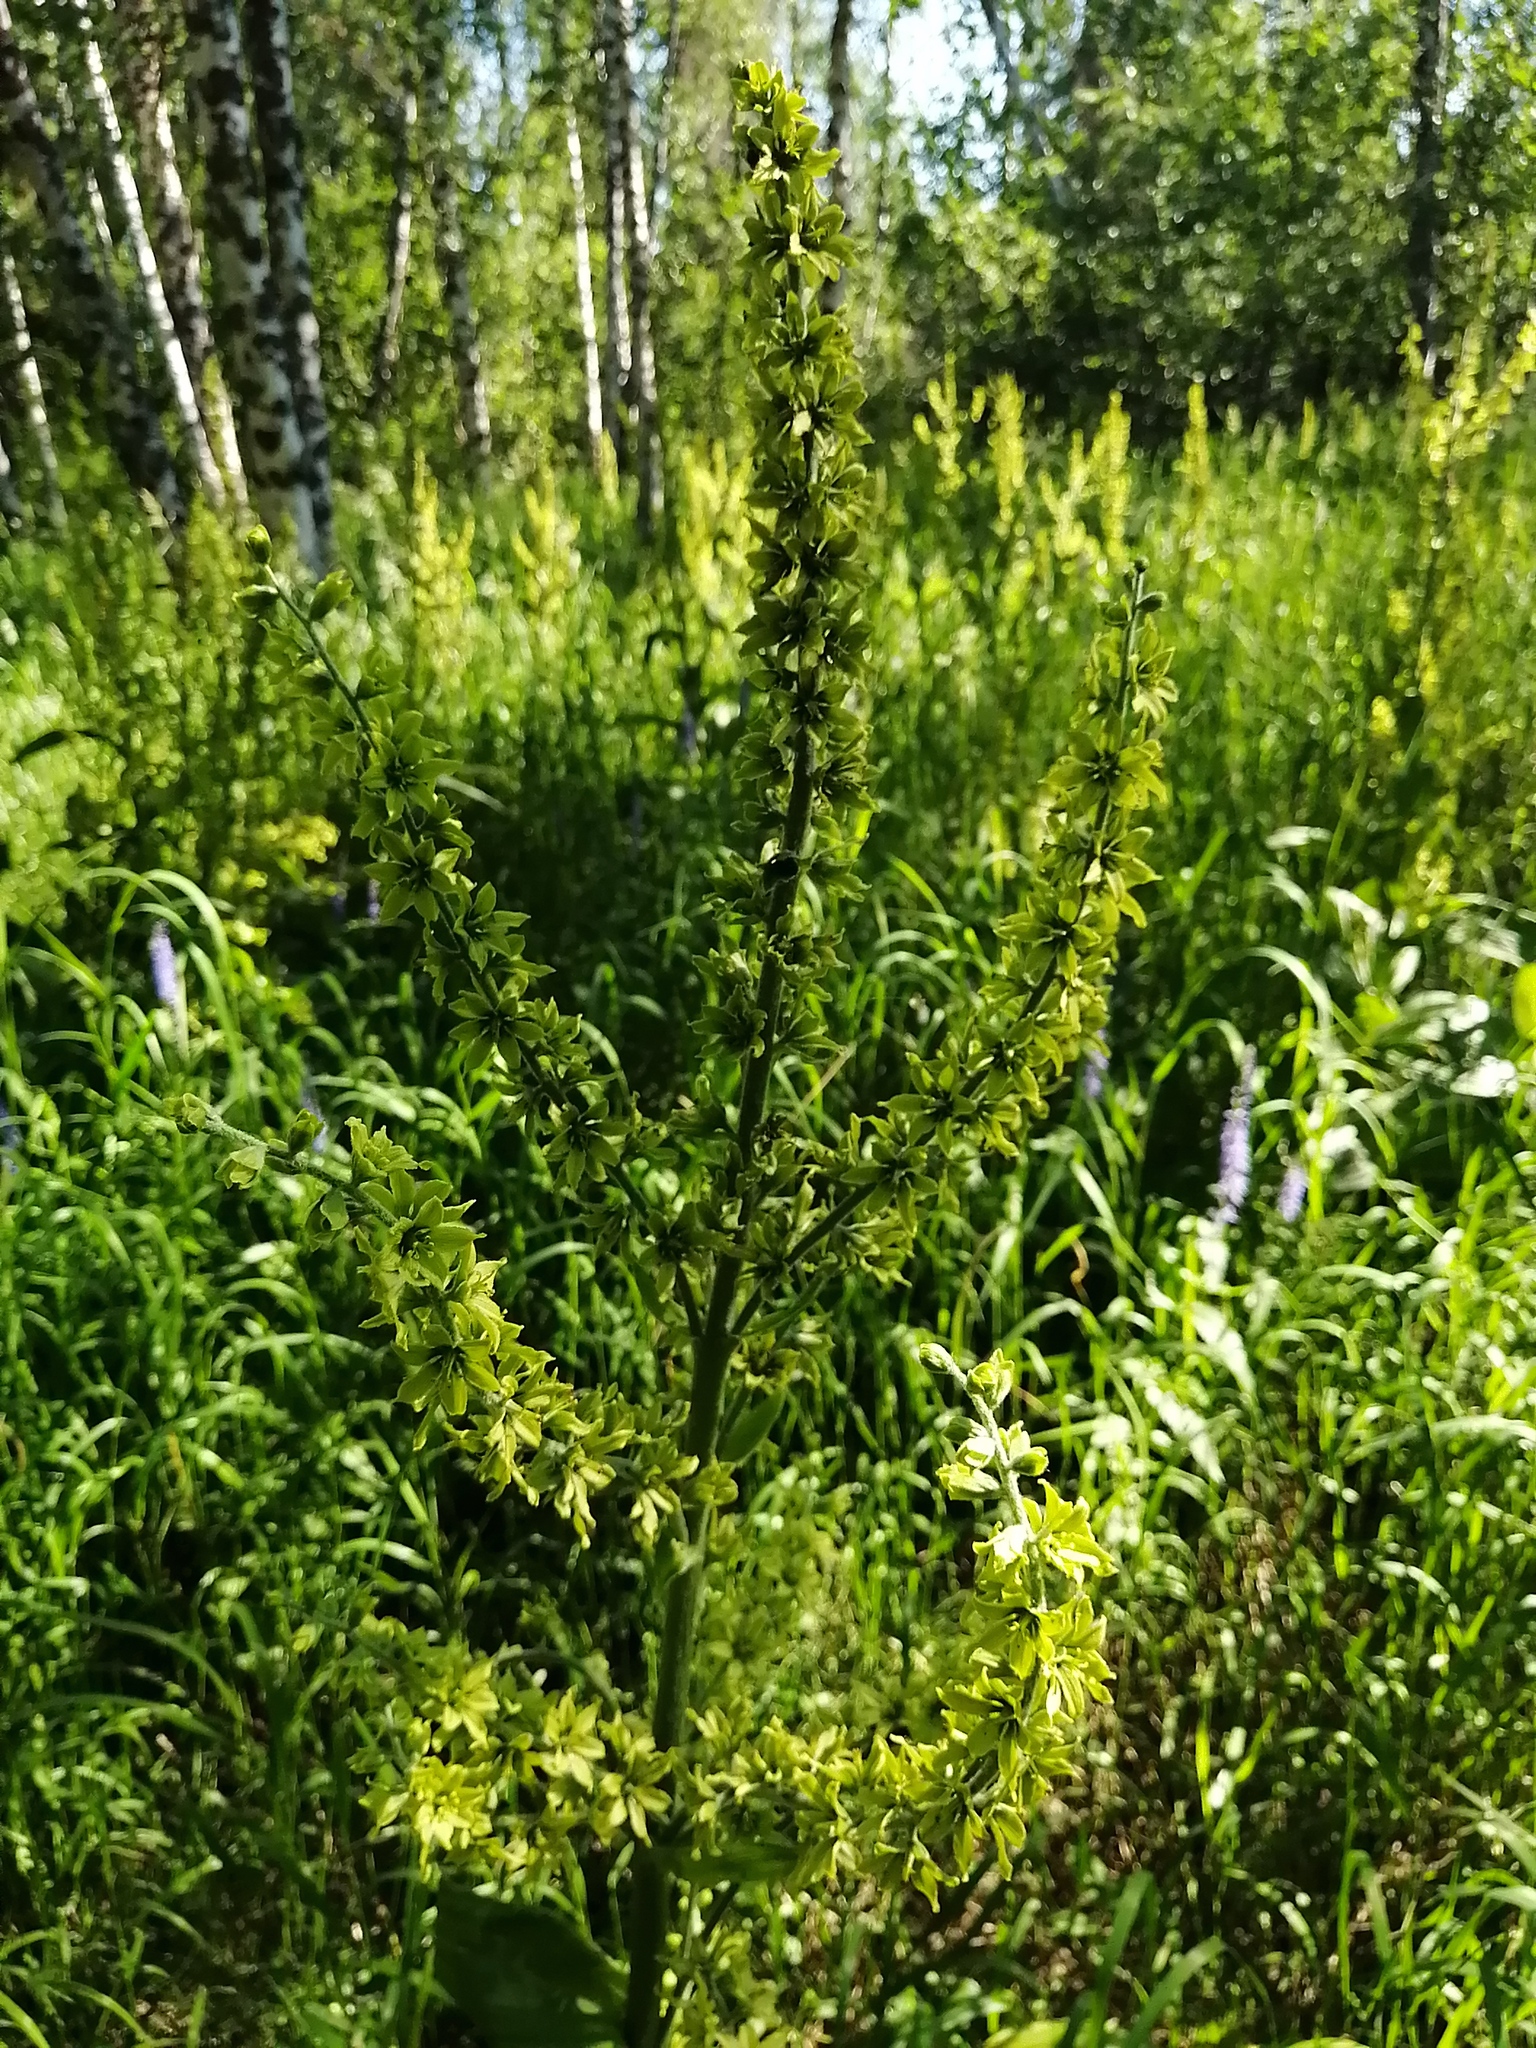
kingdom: Plantae
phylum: Tracheophyta
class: Liliopsida
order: Liliales
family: Melanthiaceae
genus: Veratrum
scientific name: Veratrum lobelianum
